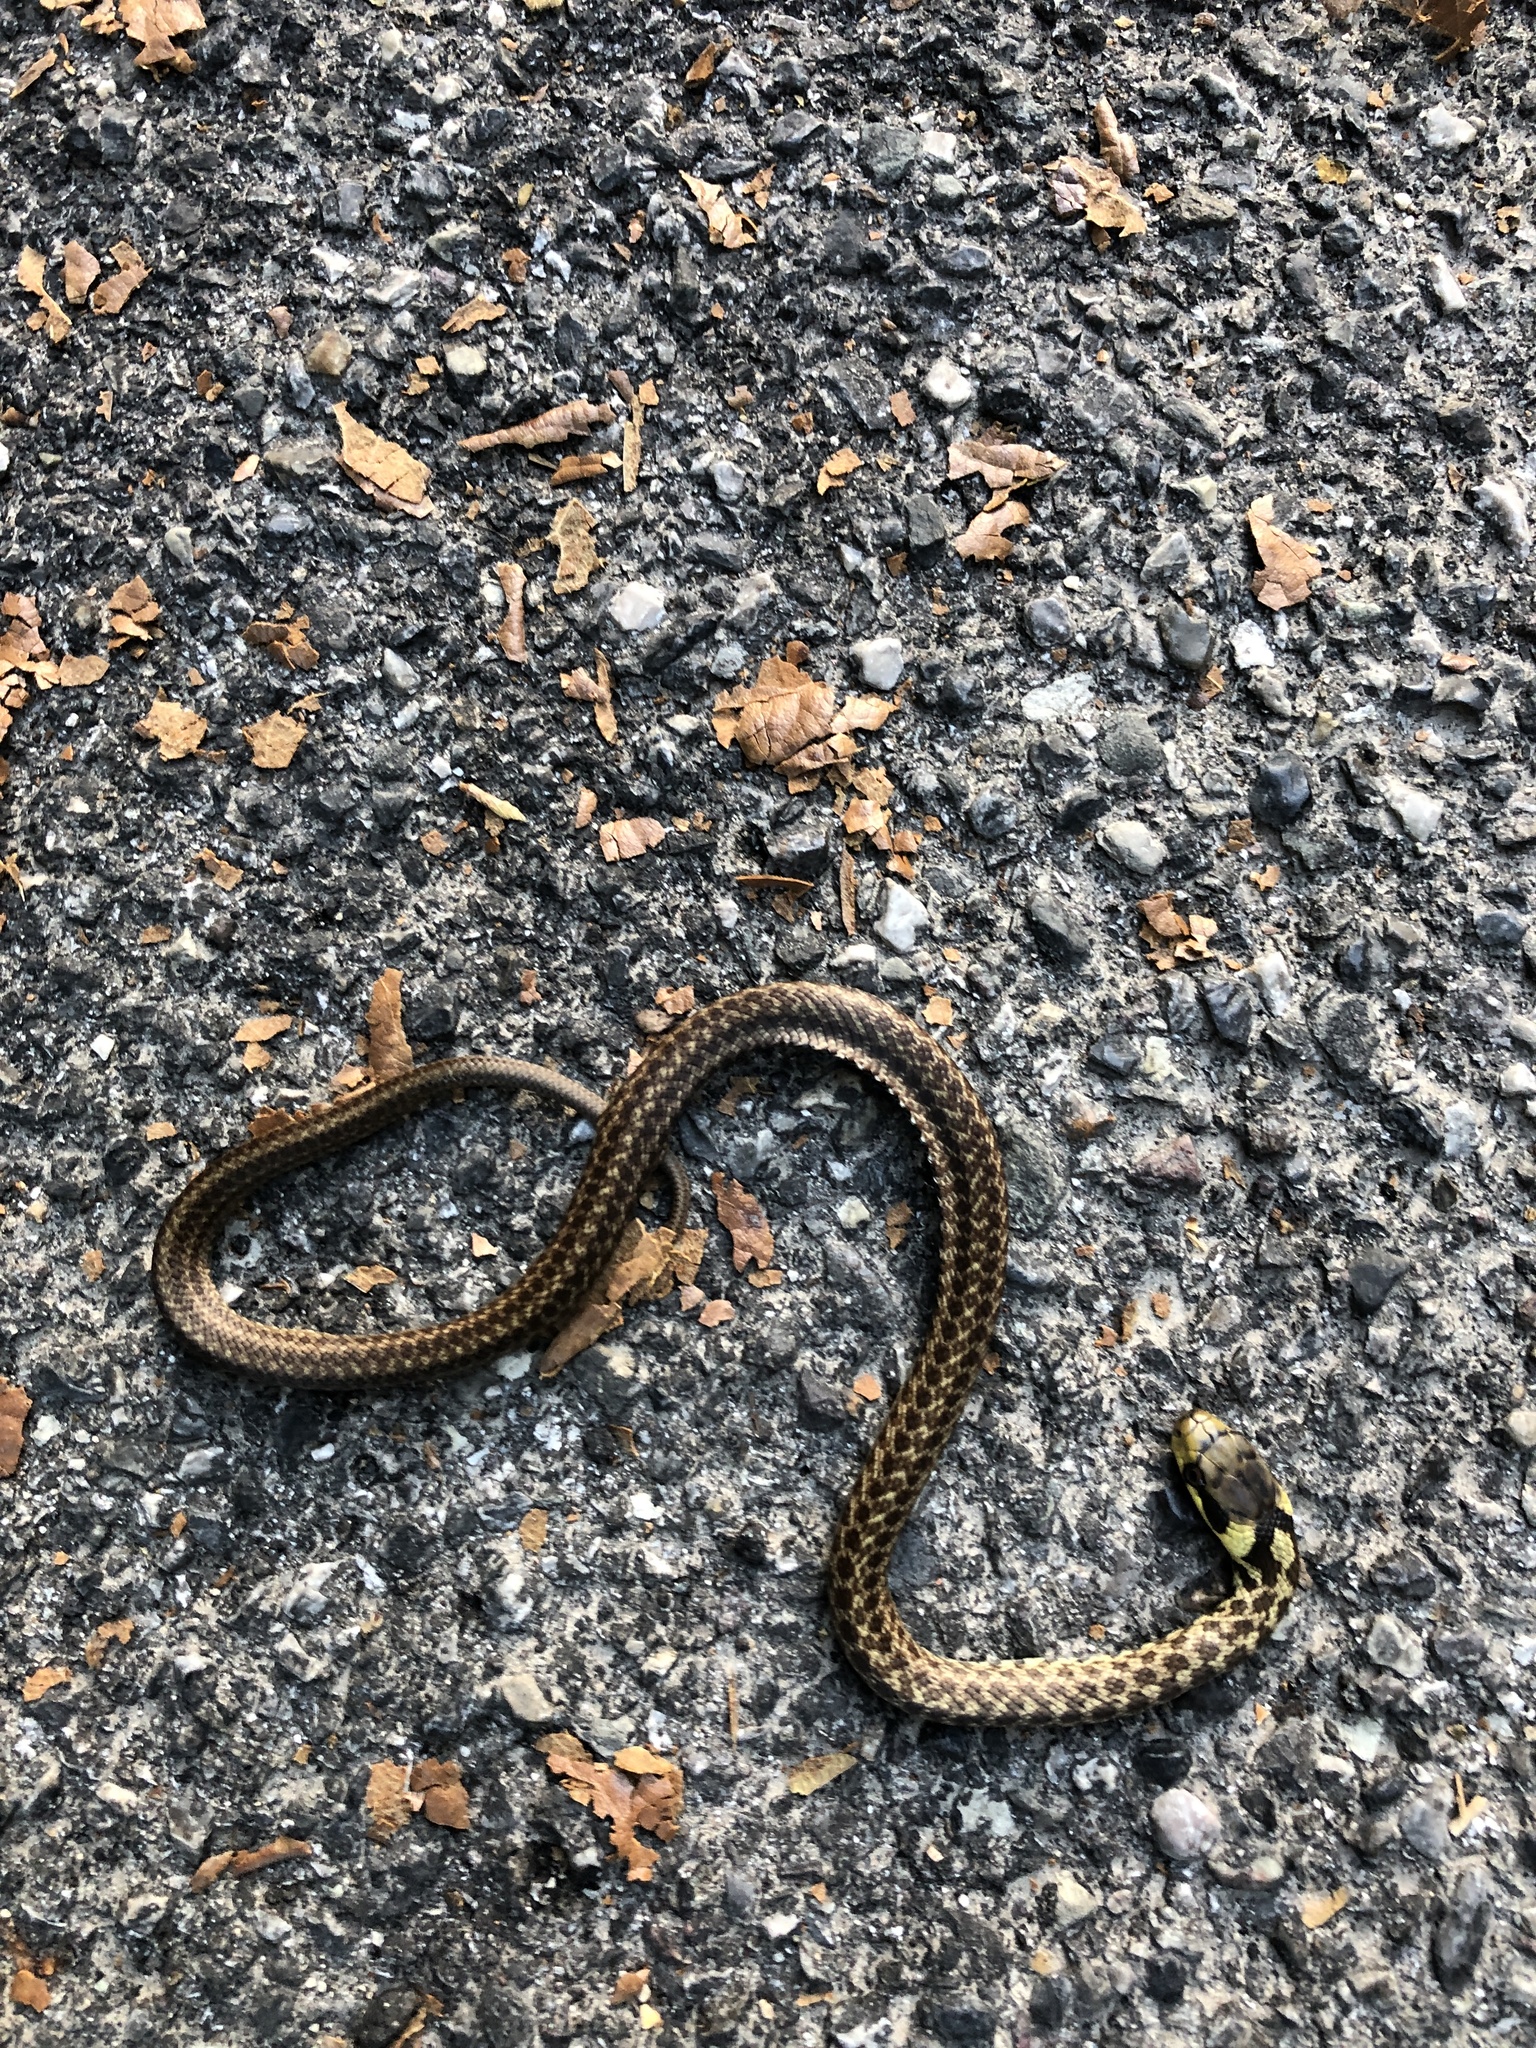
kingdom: Animalia
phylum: Chordata
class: Squamata
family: Colubridae
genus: Zamenis
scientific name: Zamenis longissimus
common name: Aesculapean snake
